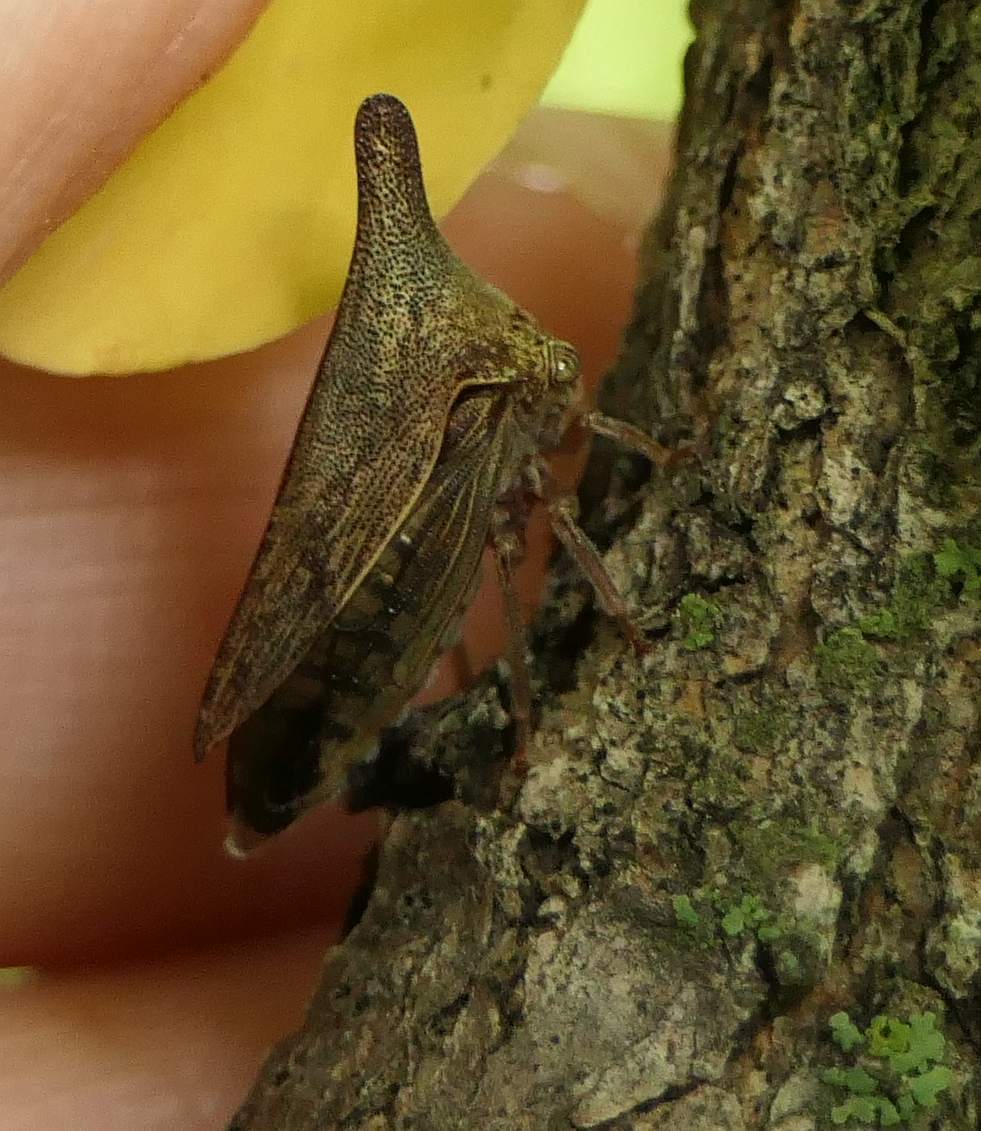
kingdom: Animalia
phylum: Arthropoda
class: Insecta
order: Hemiptera
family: Membracidae
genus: Thelia
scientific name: Thelia bimaculata
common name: Locust treehopper
